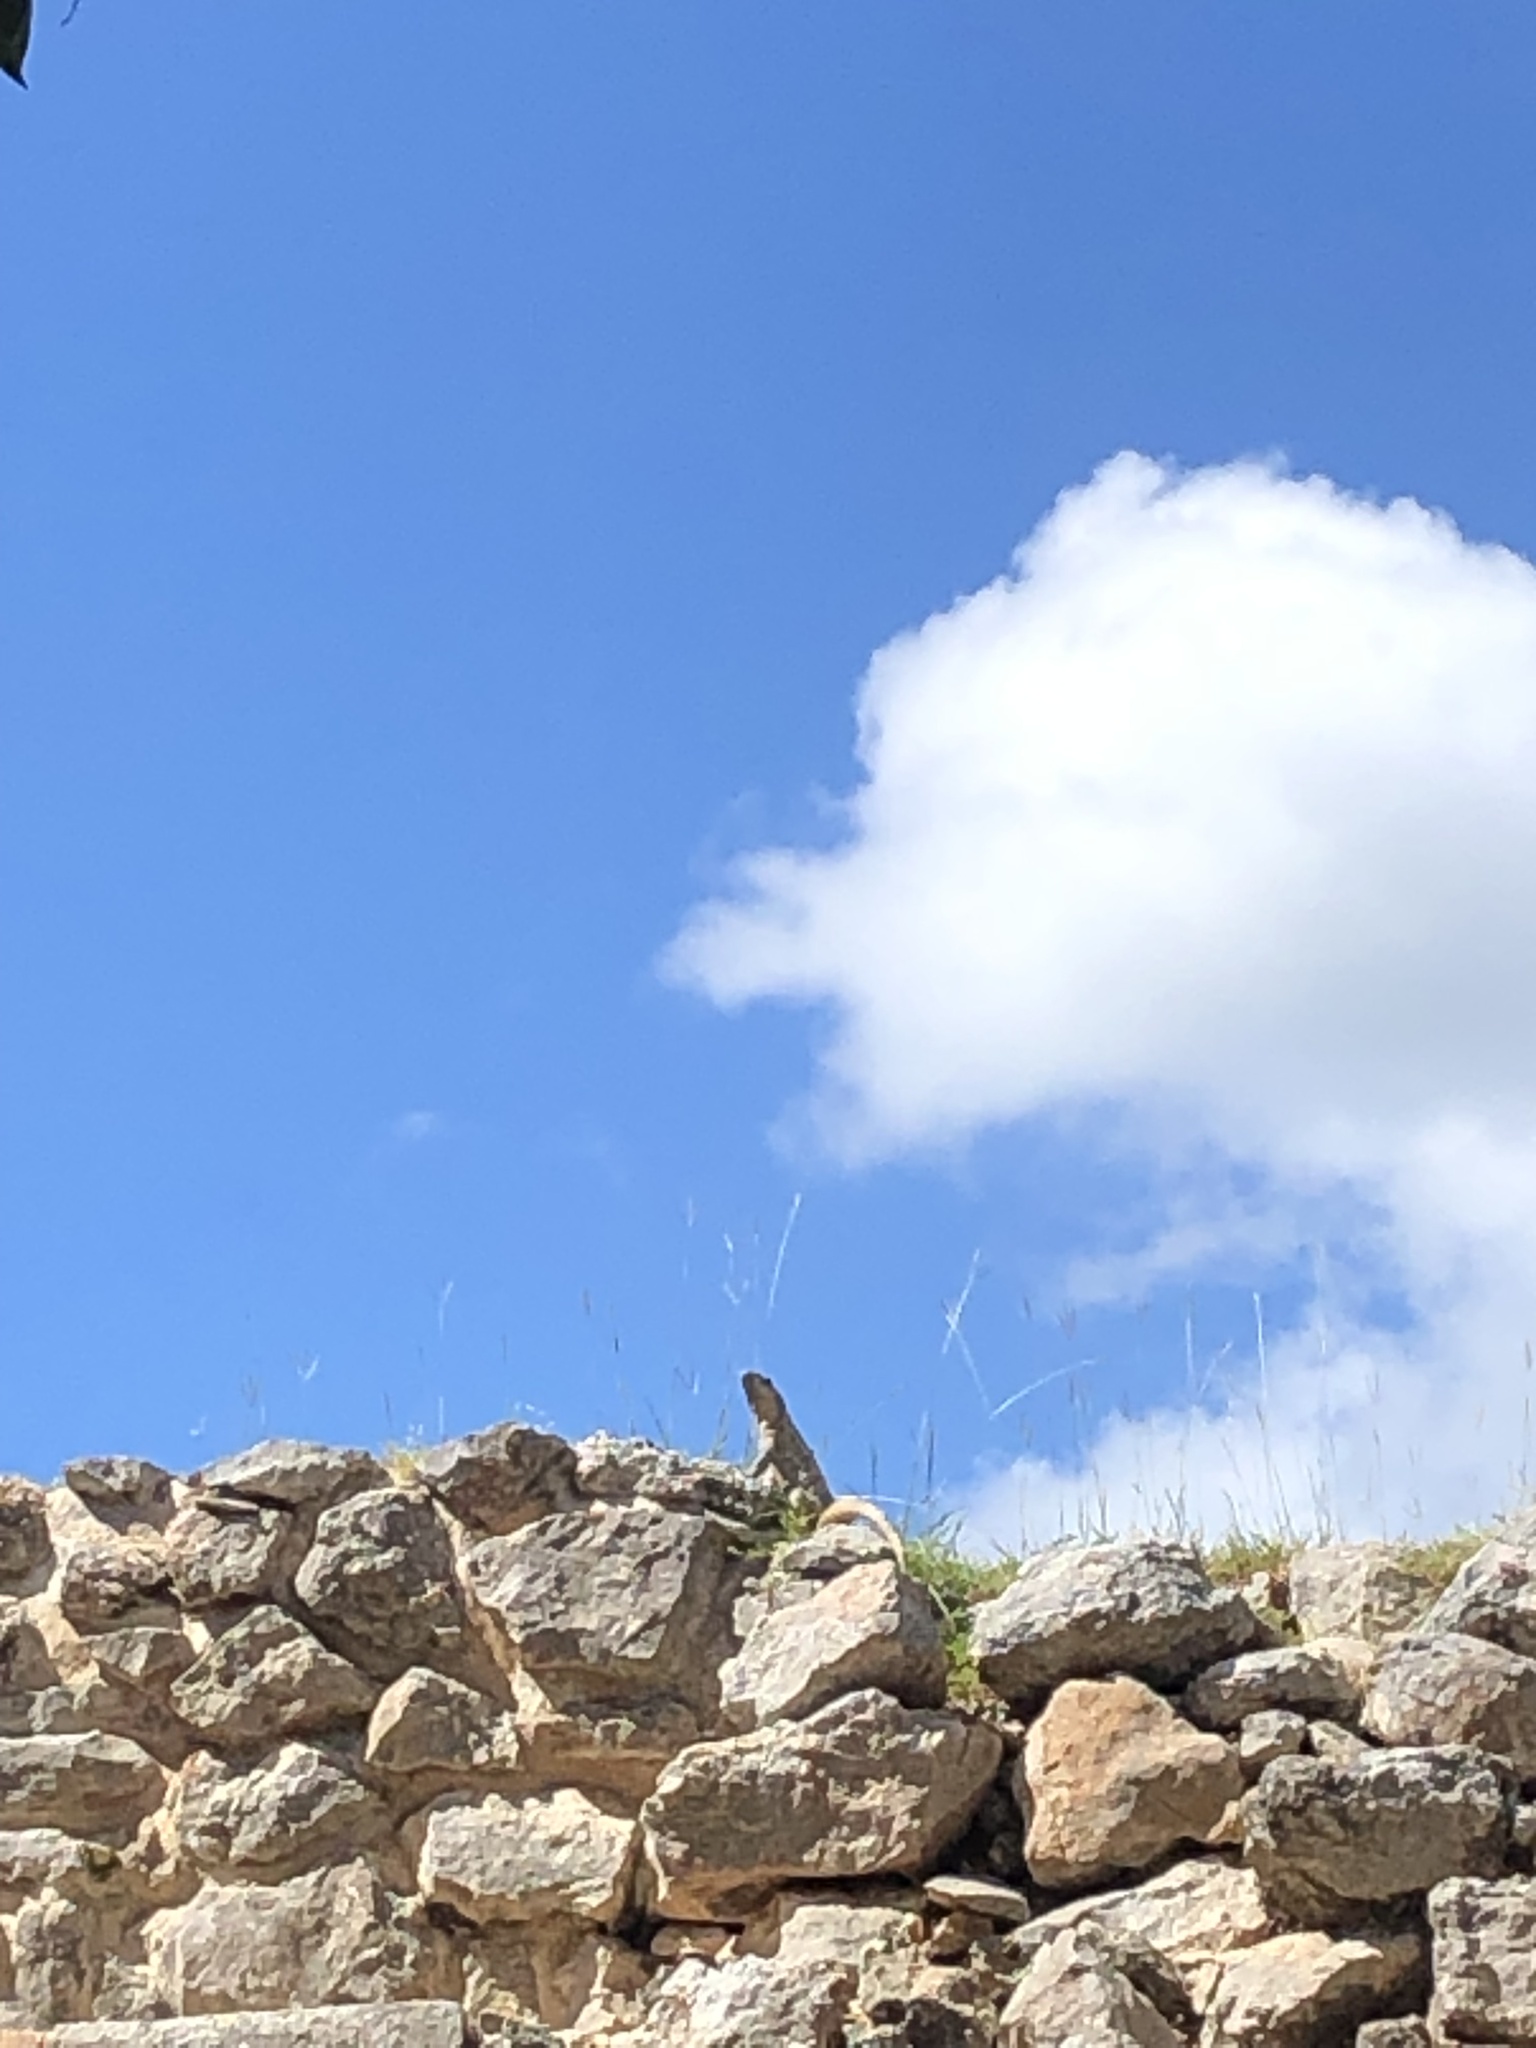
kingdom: Animalia
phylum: Chordata
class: Squamata
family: Iguanidae
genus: Ctenosaura
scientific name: Ctenosaura similis
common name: Black spiny-tailed iguana
